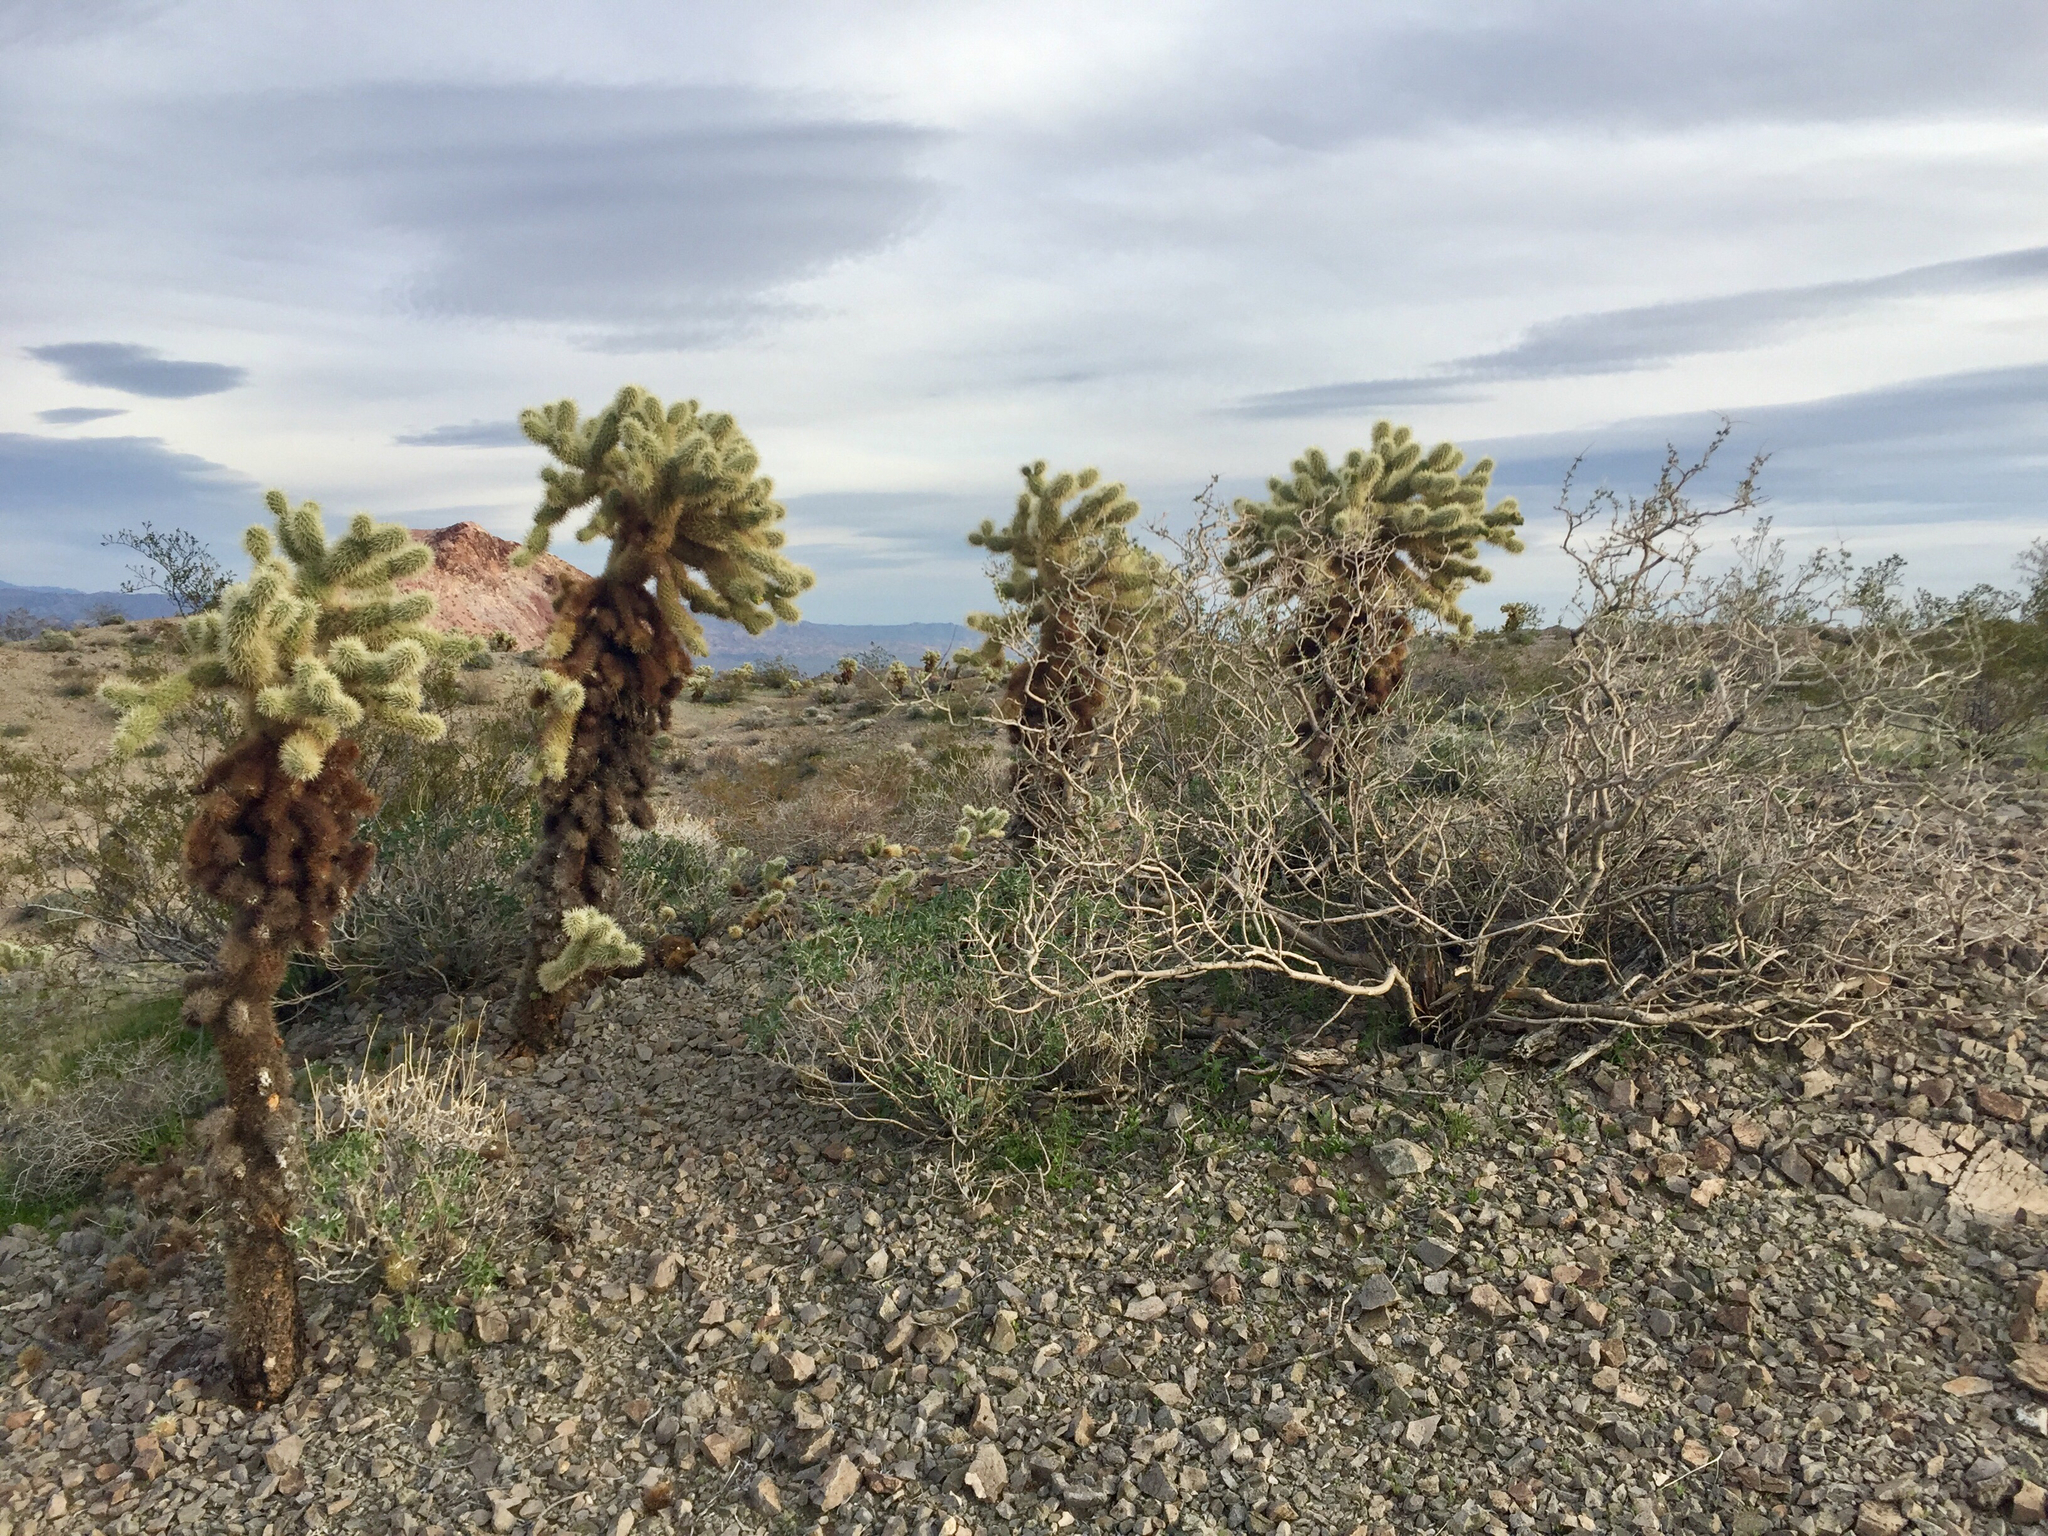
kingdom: Plantae
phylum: Tracheophyta
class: Magnoliopsida
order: Caryophyllales
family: Cactaceae
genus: Cylindropuntia
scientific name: Cylindropuntia fosbergii
